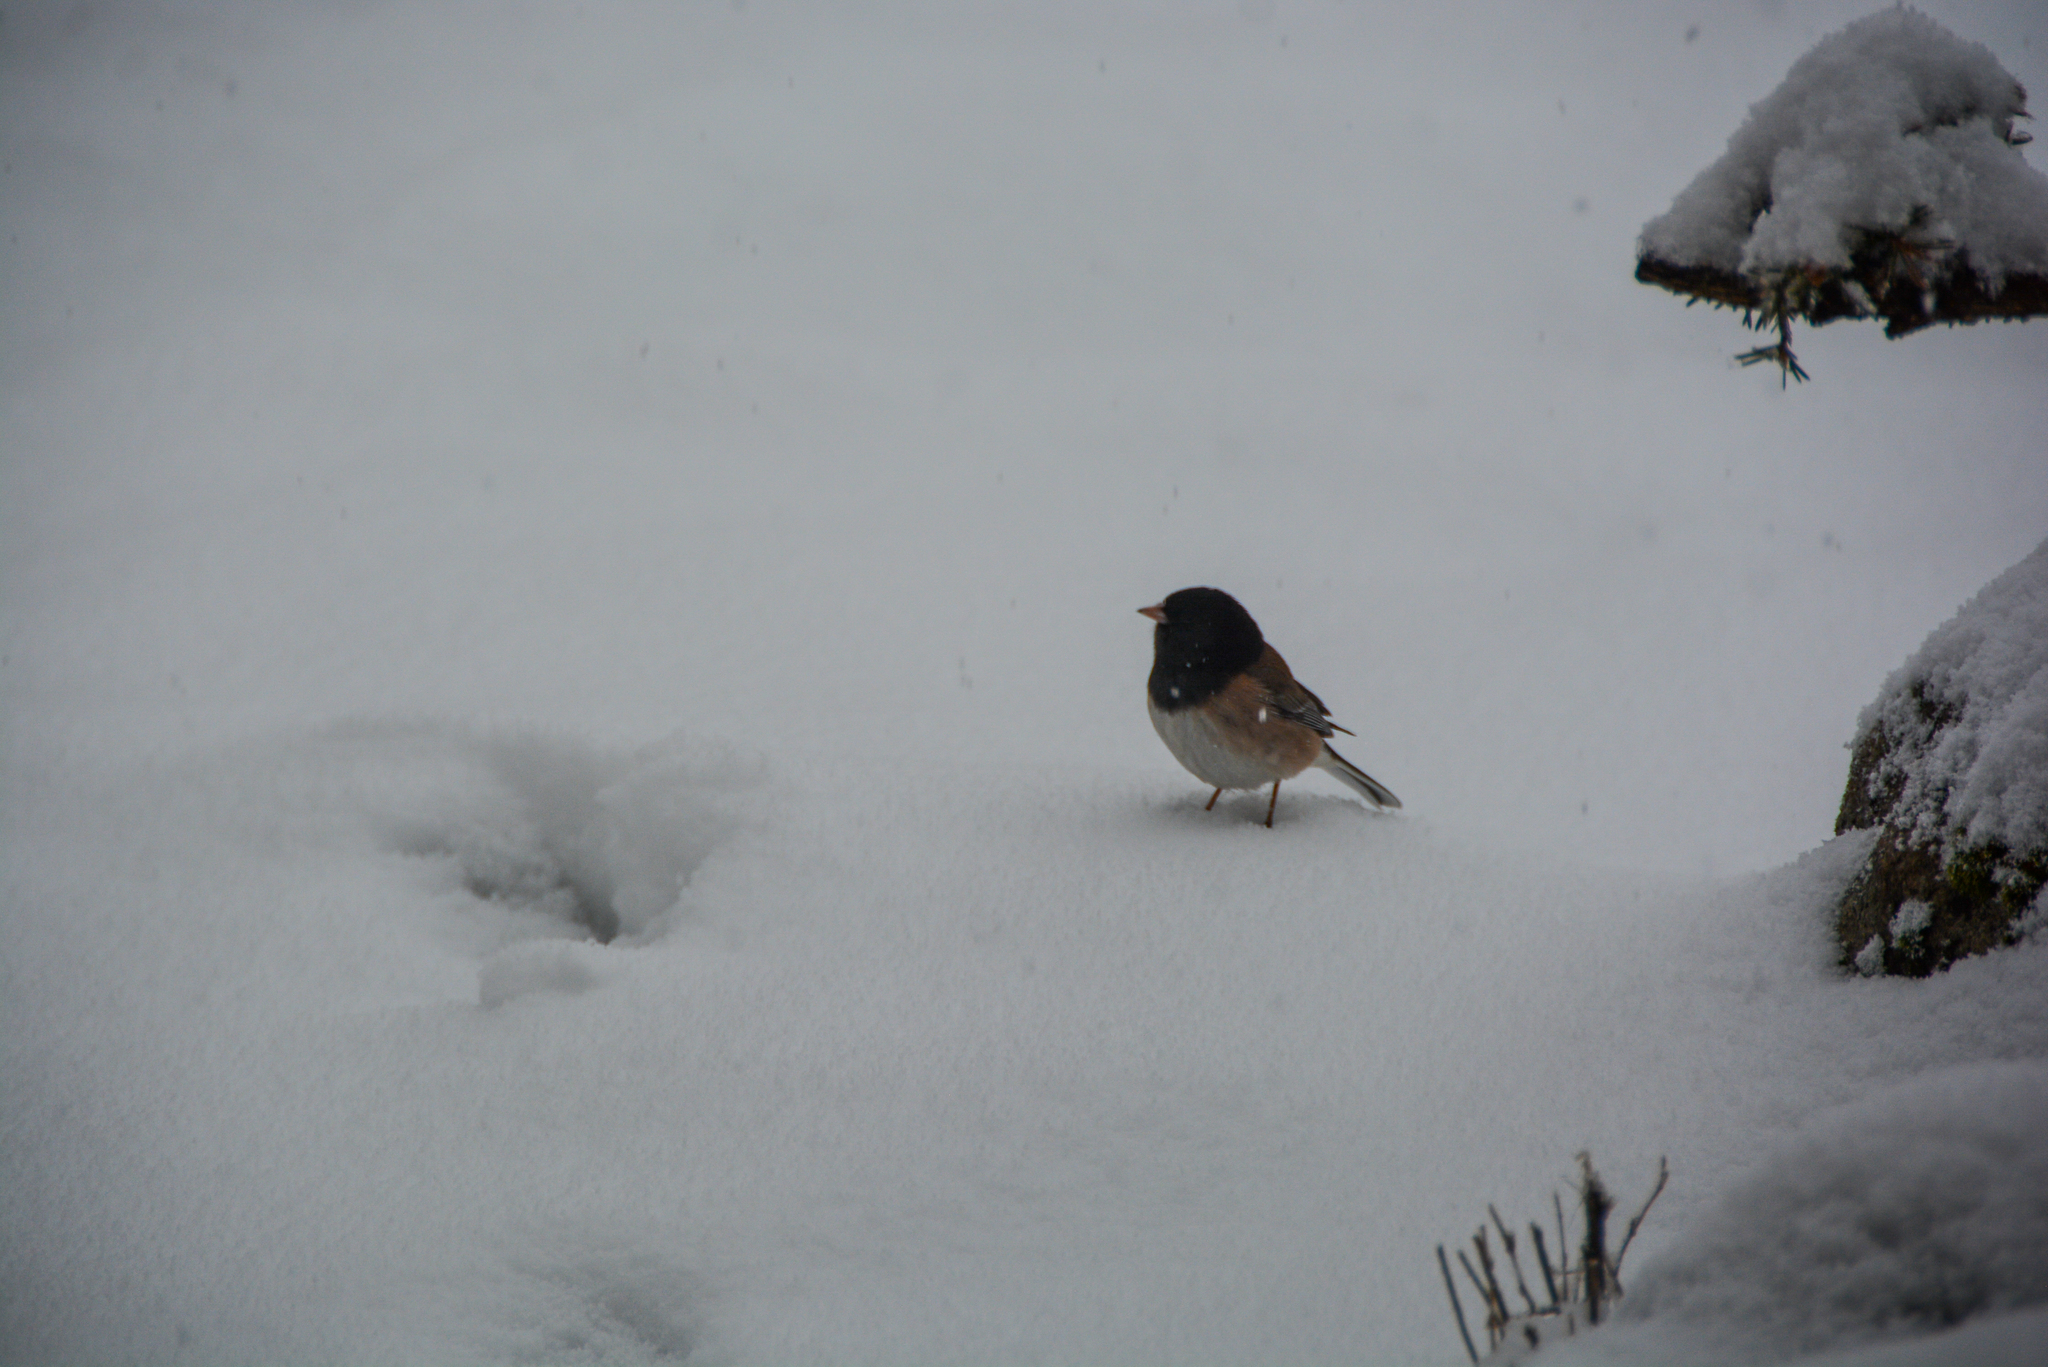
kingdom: Animalia
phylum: Chordata
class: Aves
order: Passeriformes
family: Passerellidae
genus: Junco
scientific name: Junco hyemalis
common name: Dark-eyed junco
